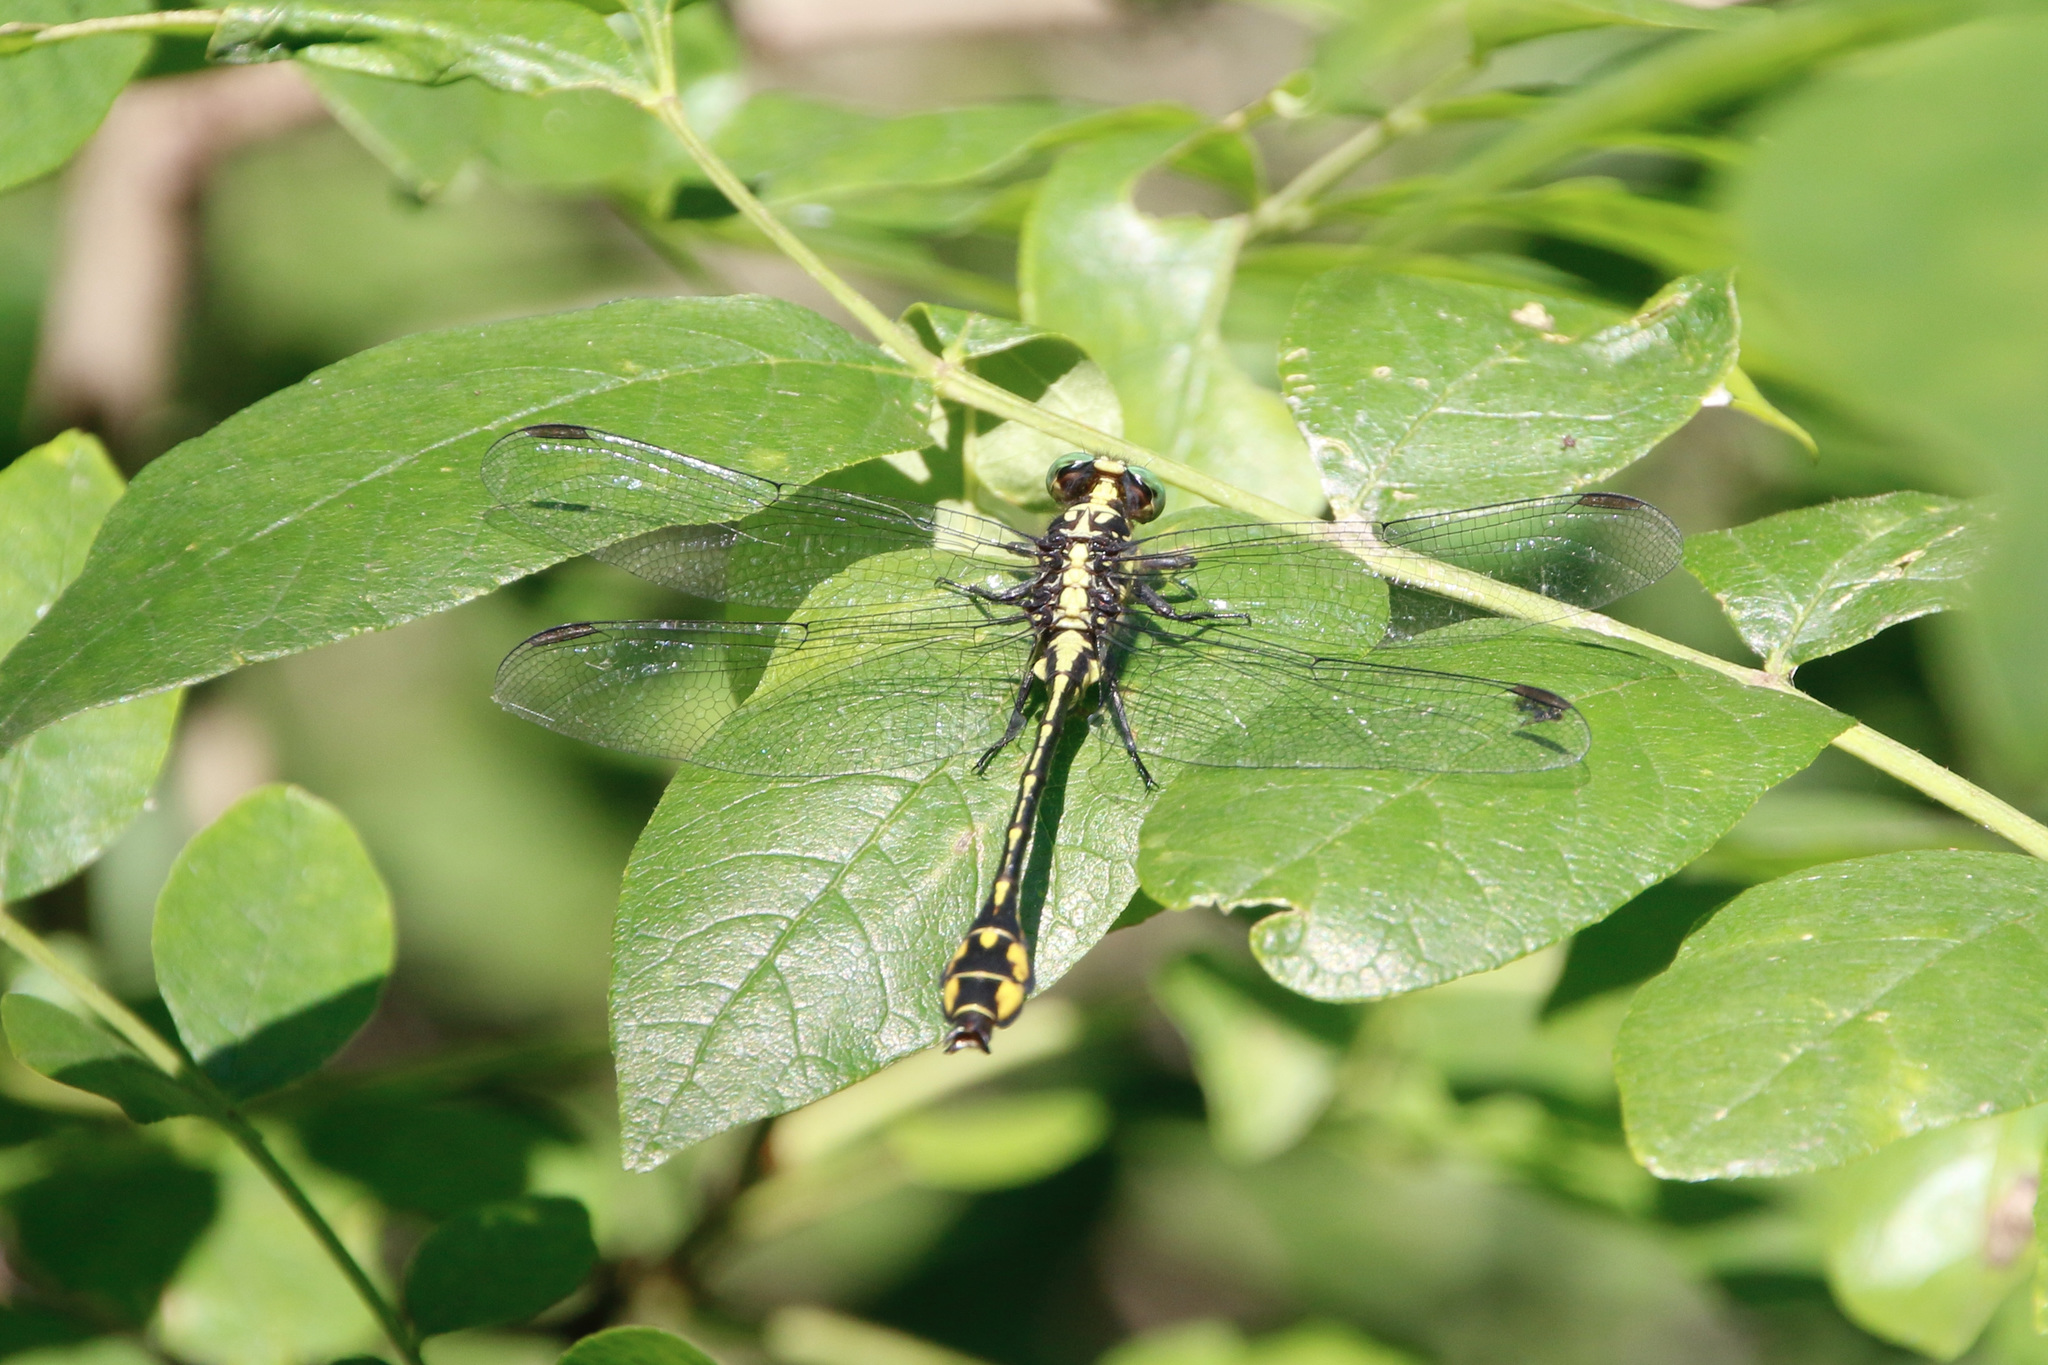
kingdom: Animalia
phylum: Arthropoda
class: Insecta
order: Odonata
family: Gomphidae
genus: Stylurus
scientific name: Stylurus amnicola
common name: Riverine clubtail
